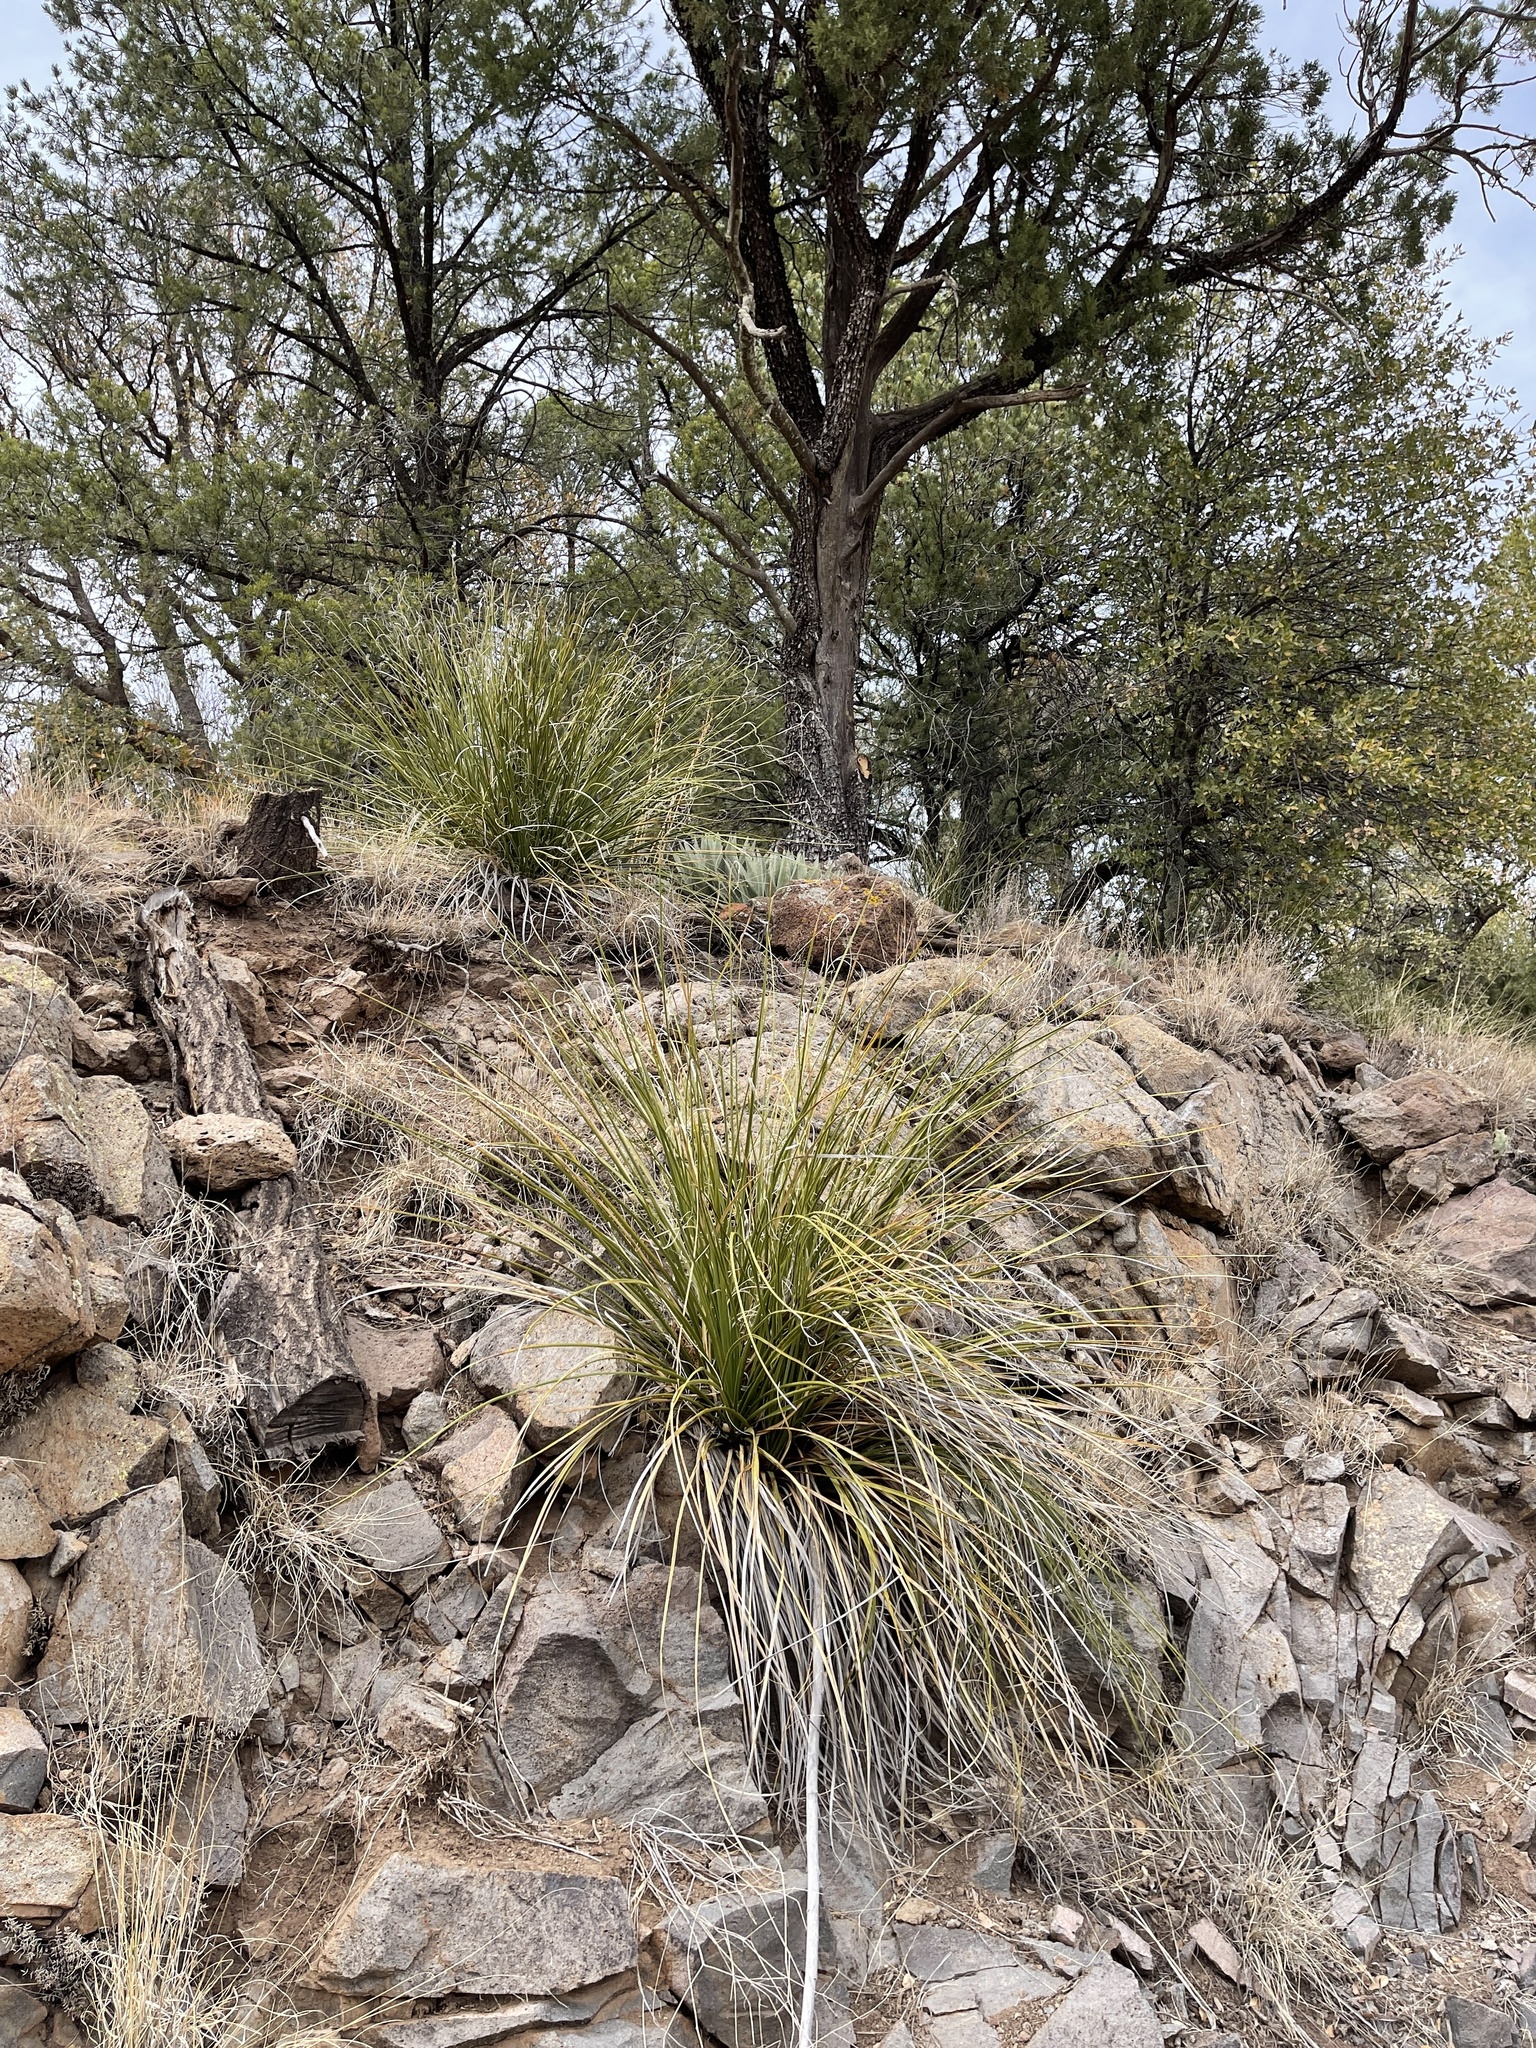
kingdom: Plantae
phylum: Tracheophyta
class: Liliopsida
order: Asparagales
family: Asparagaceae
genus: Nolina
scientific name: Nolina microcarpa
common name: Bear-grass
